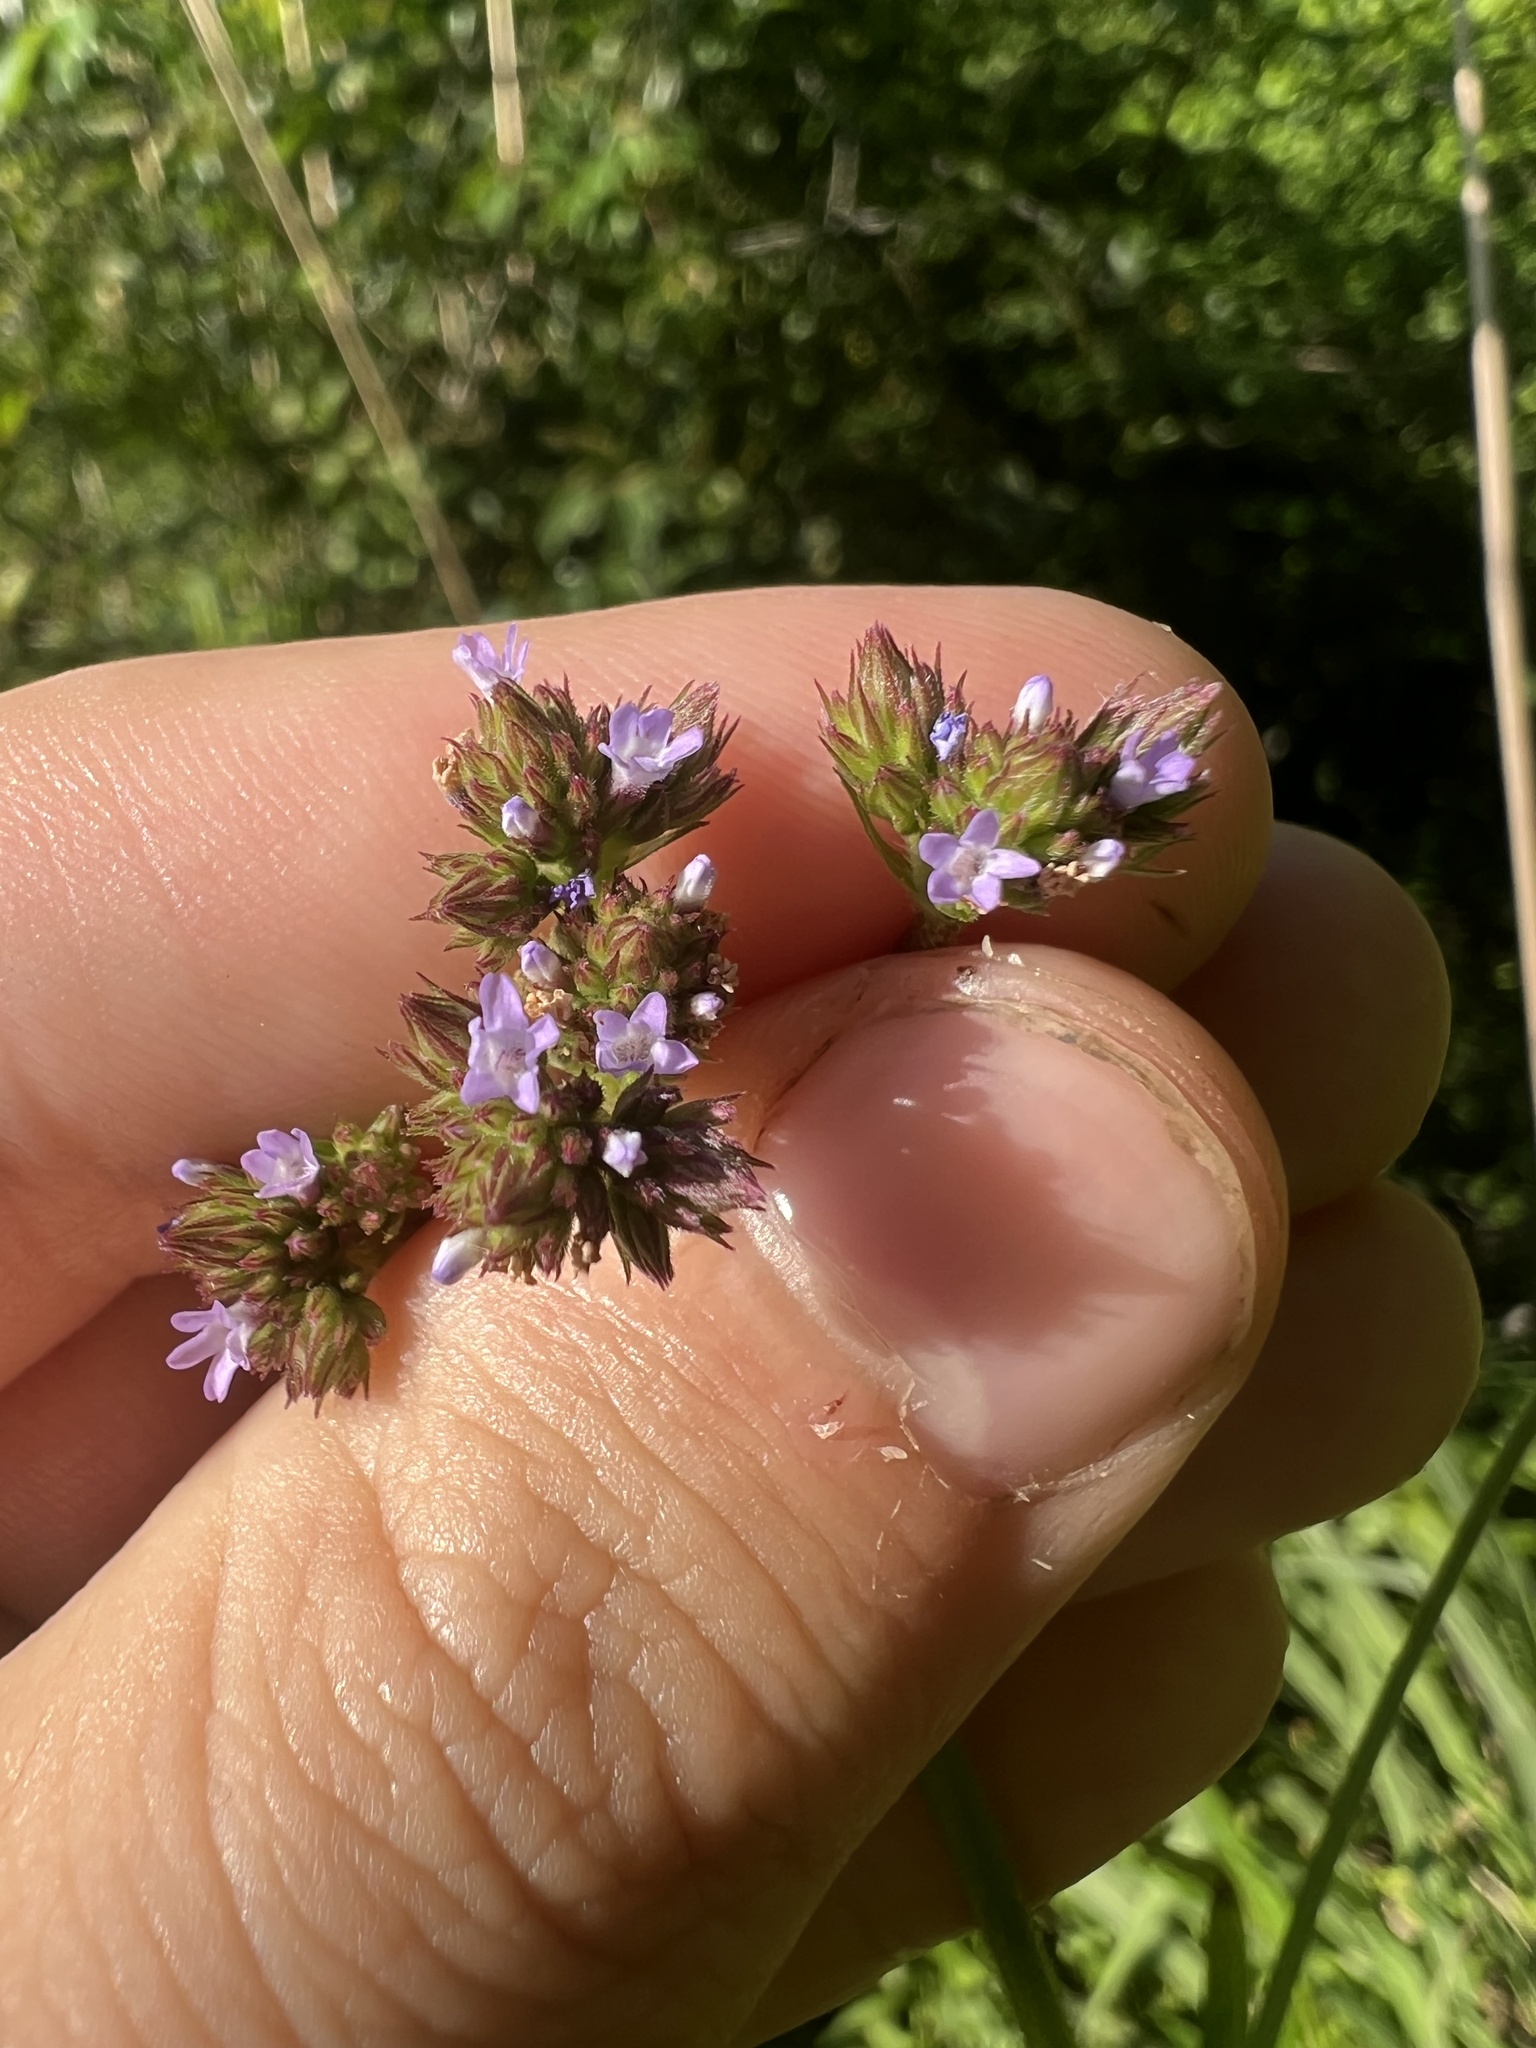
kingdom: Plantae
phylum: Tracheophyta
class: Magnoliopsida
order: Lamiales
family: Verbenaceae
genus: Verbena
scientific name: Verbena brasiliensis
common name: Brazilian vervain
